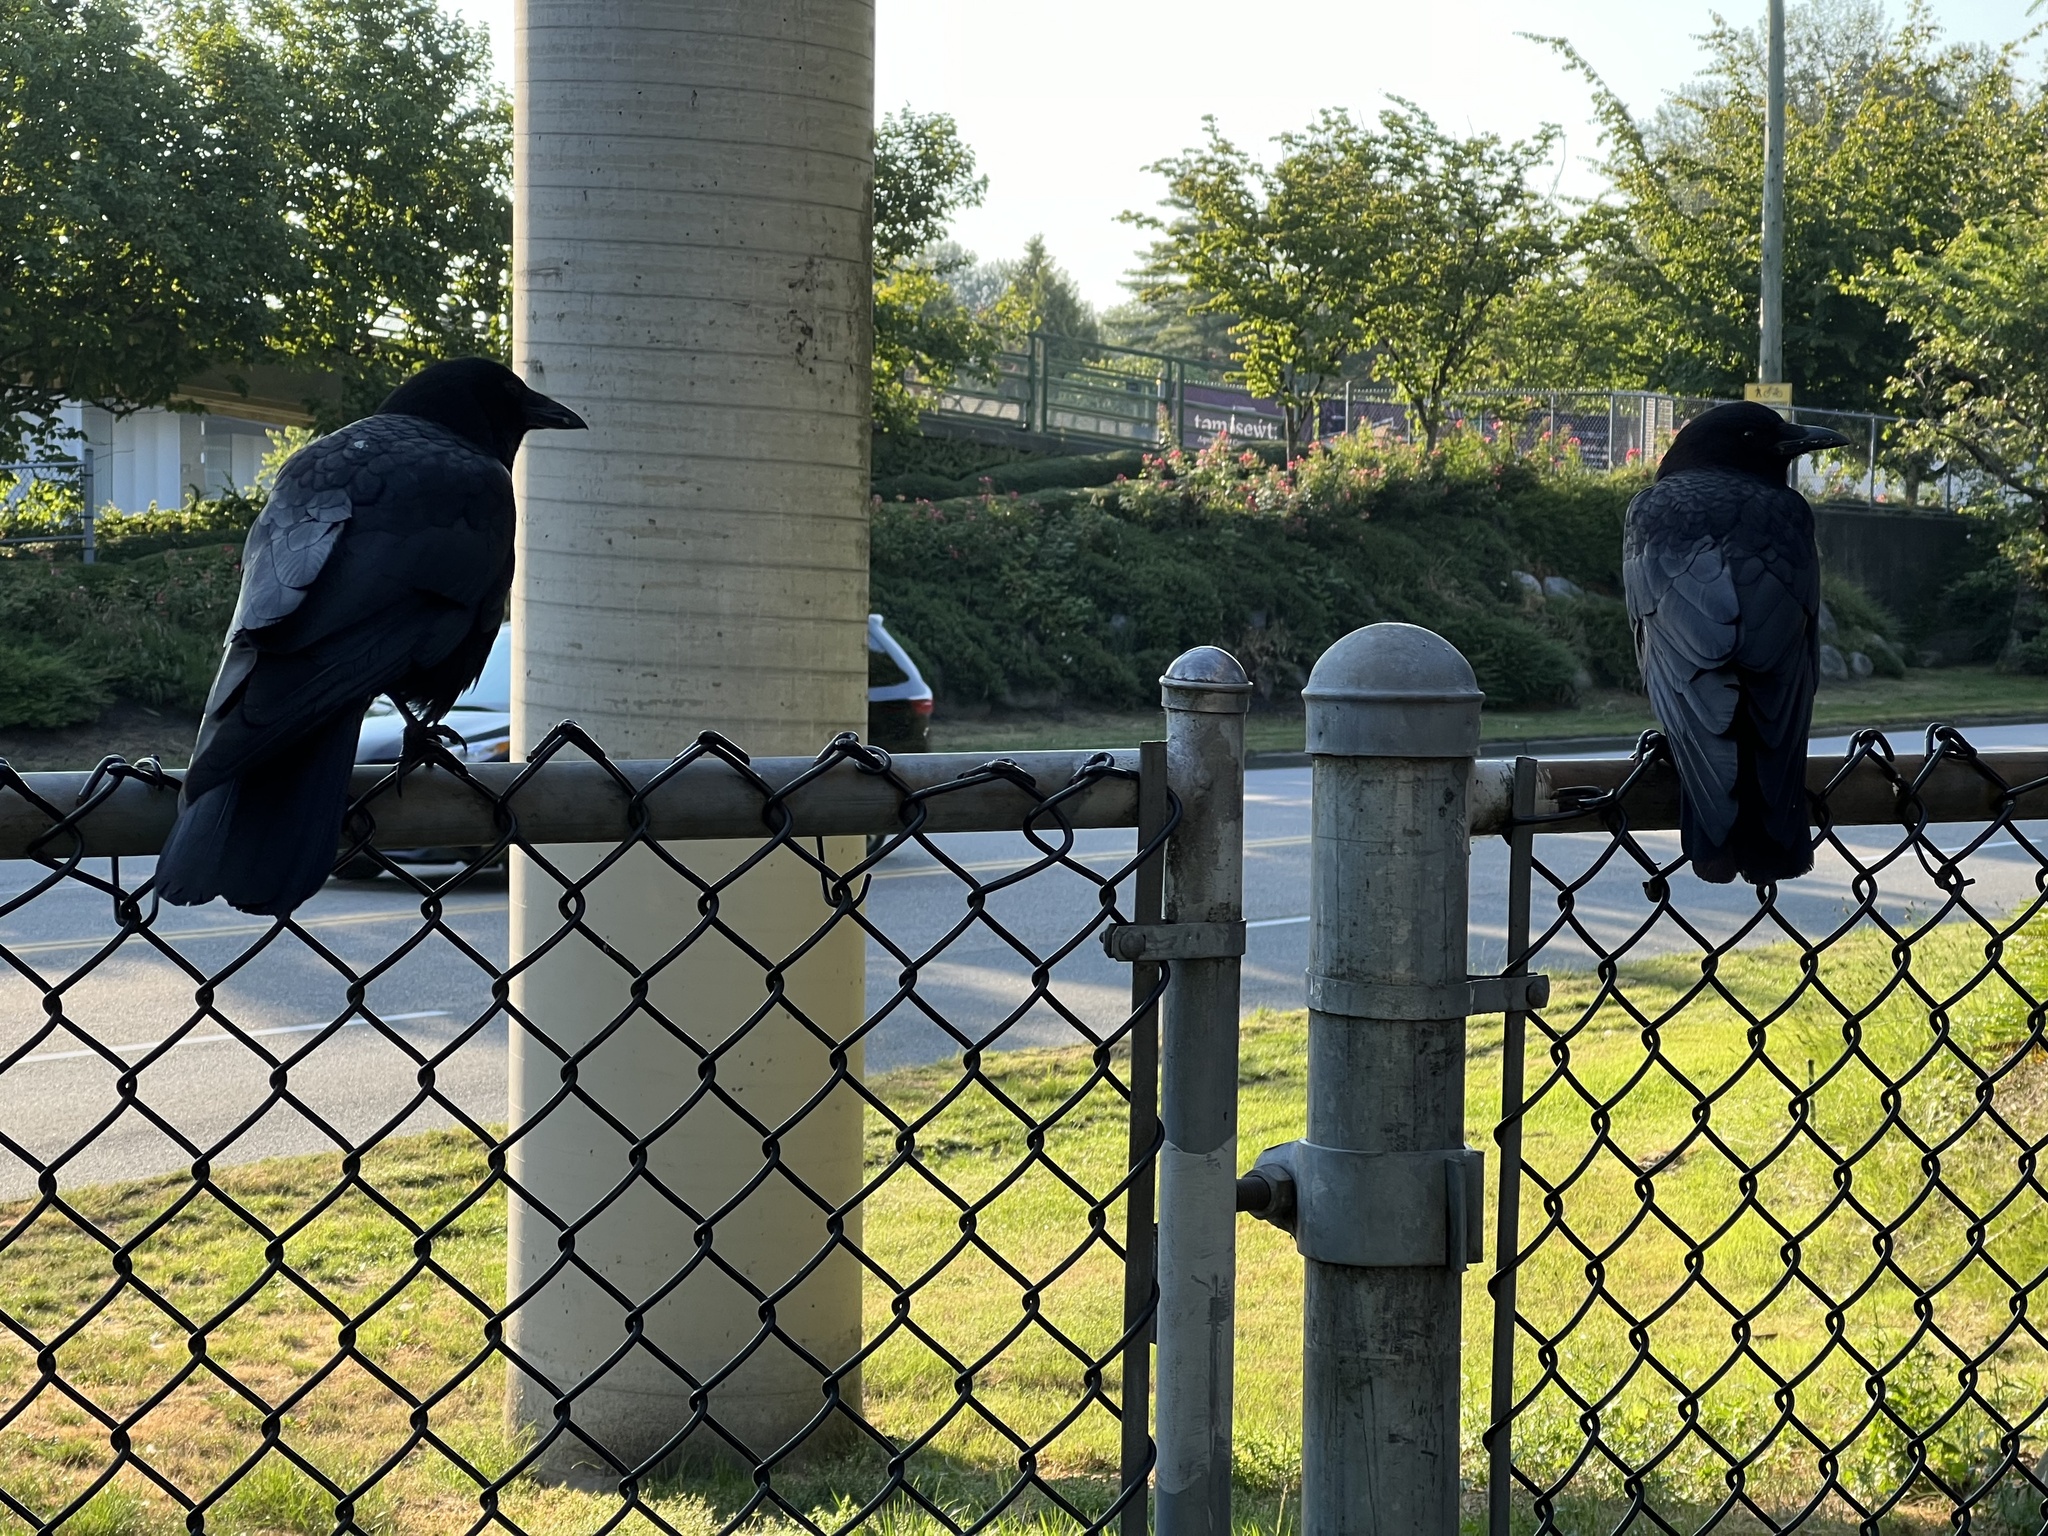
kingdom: Animalia
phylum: Chordata
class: Aves
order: Passeriformes
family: Corvidae
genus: Corvus
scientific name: Corvus brachyrhynchos
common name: American crow
